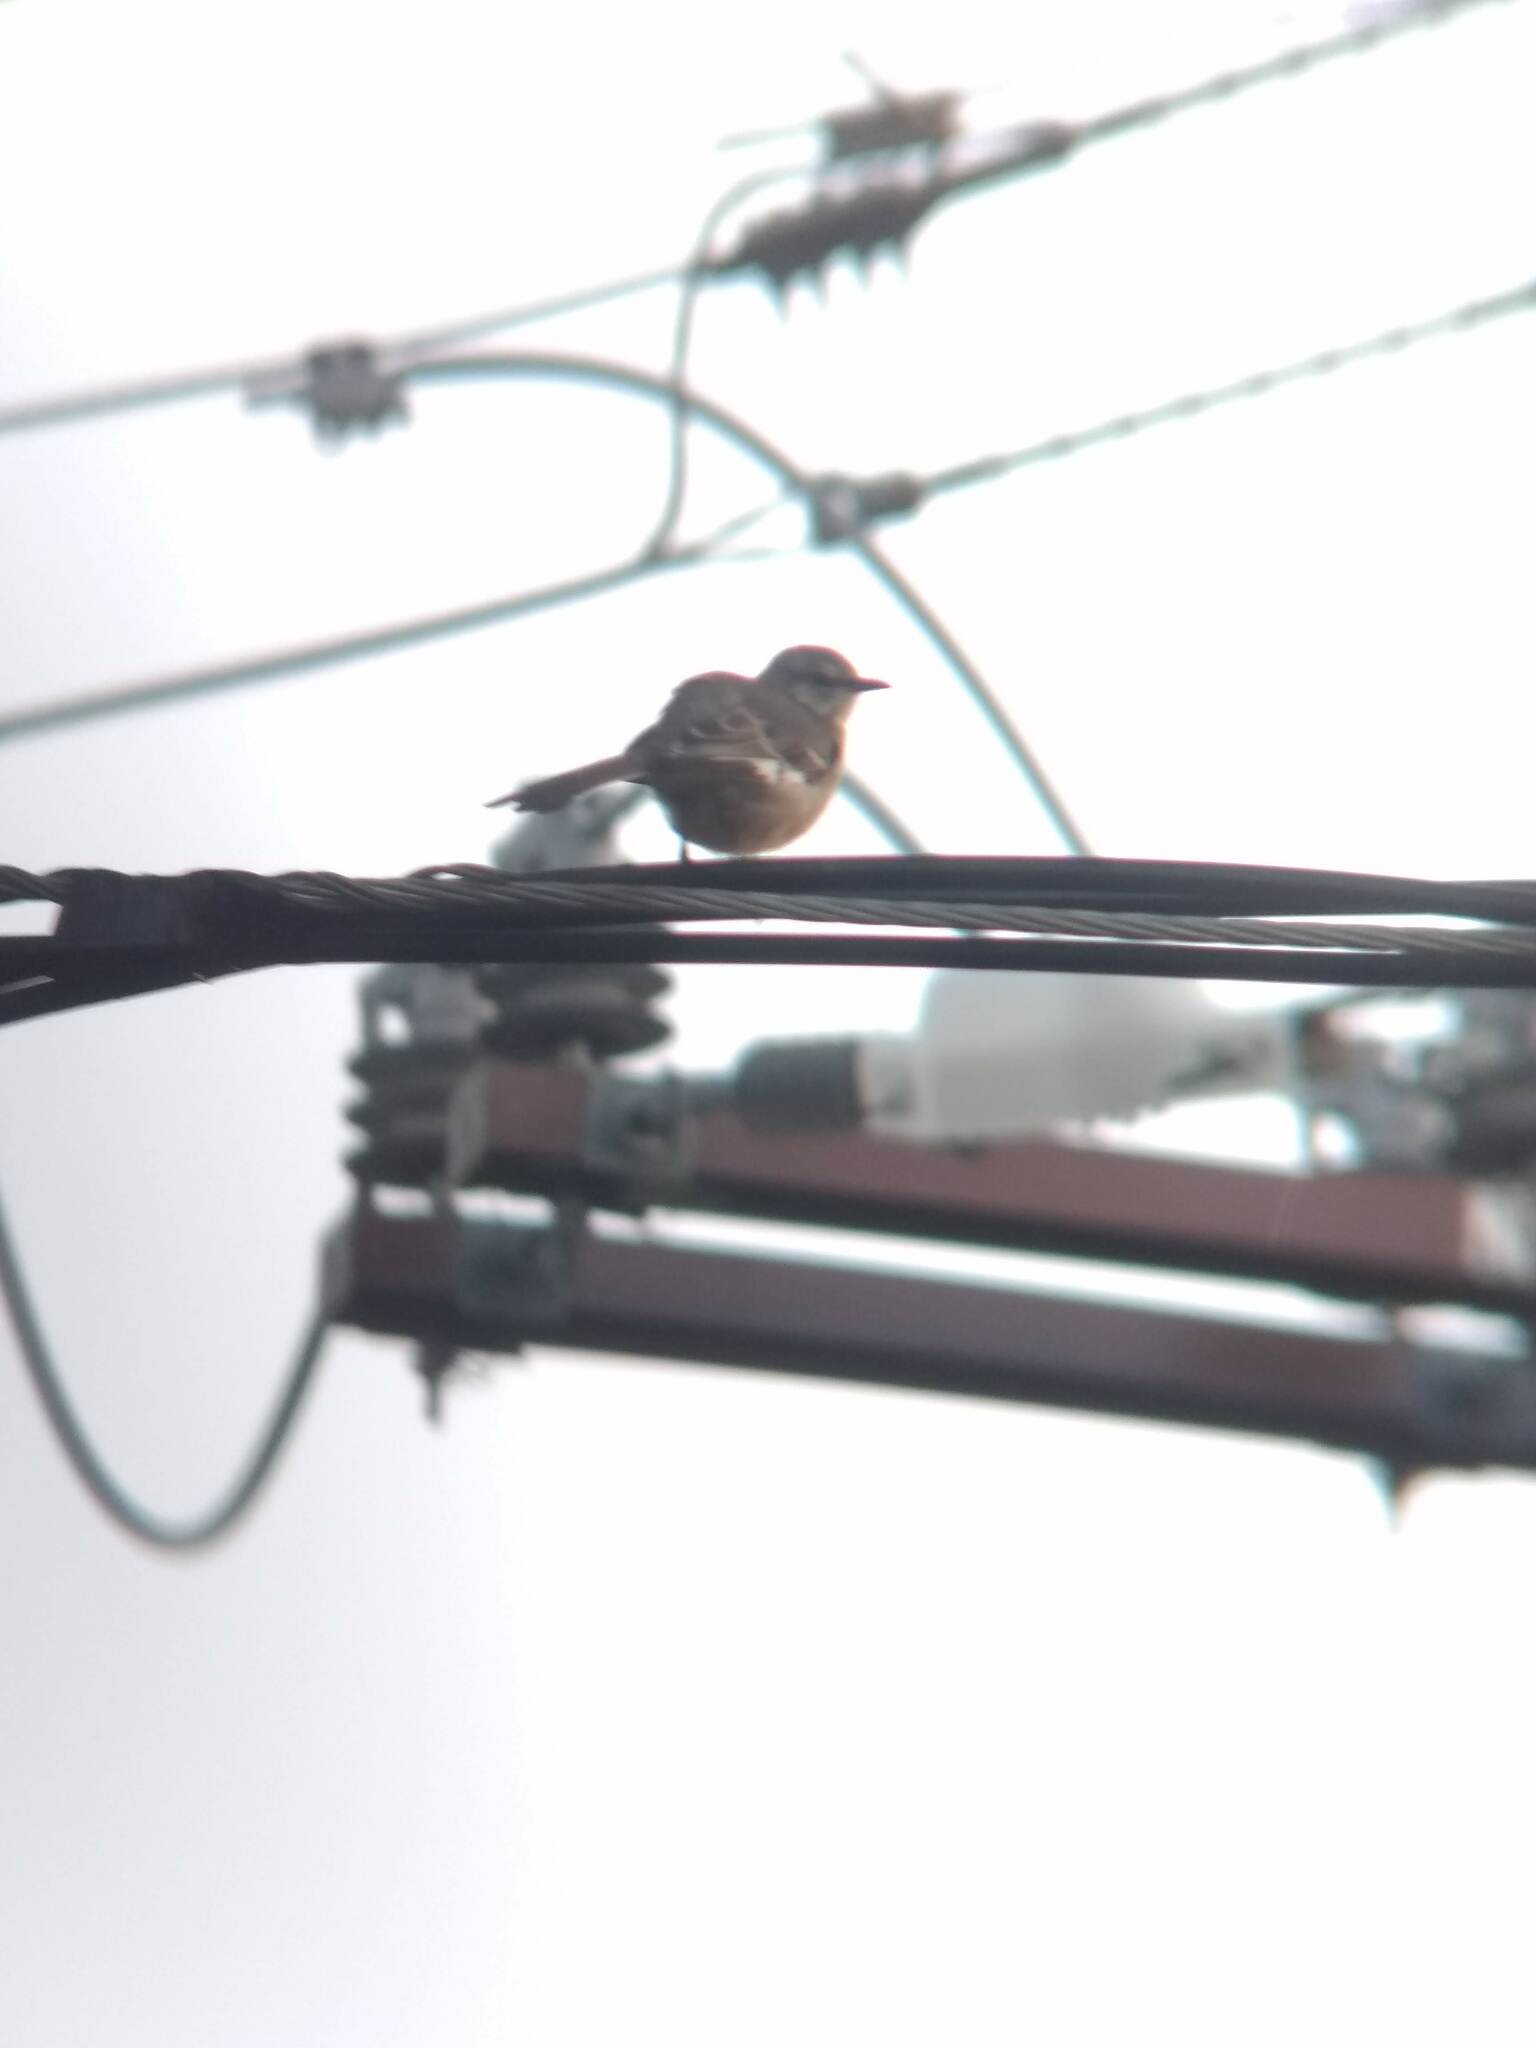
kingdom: Animalia
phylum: Chordata
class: Aves
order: Passeriformes
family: Mimidae
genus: Mimus
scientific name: Mimus polyglottos
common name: Northern mockingbird
